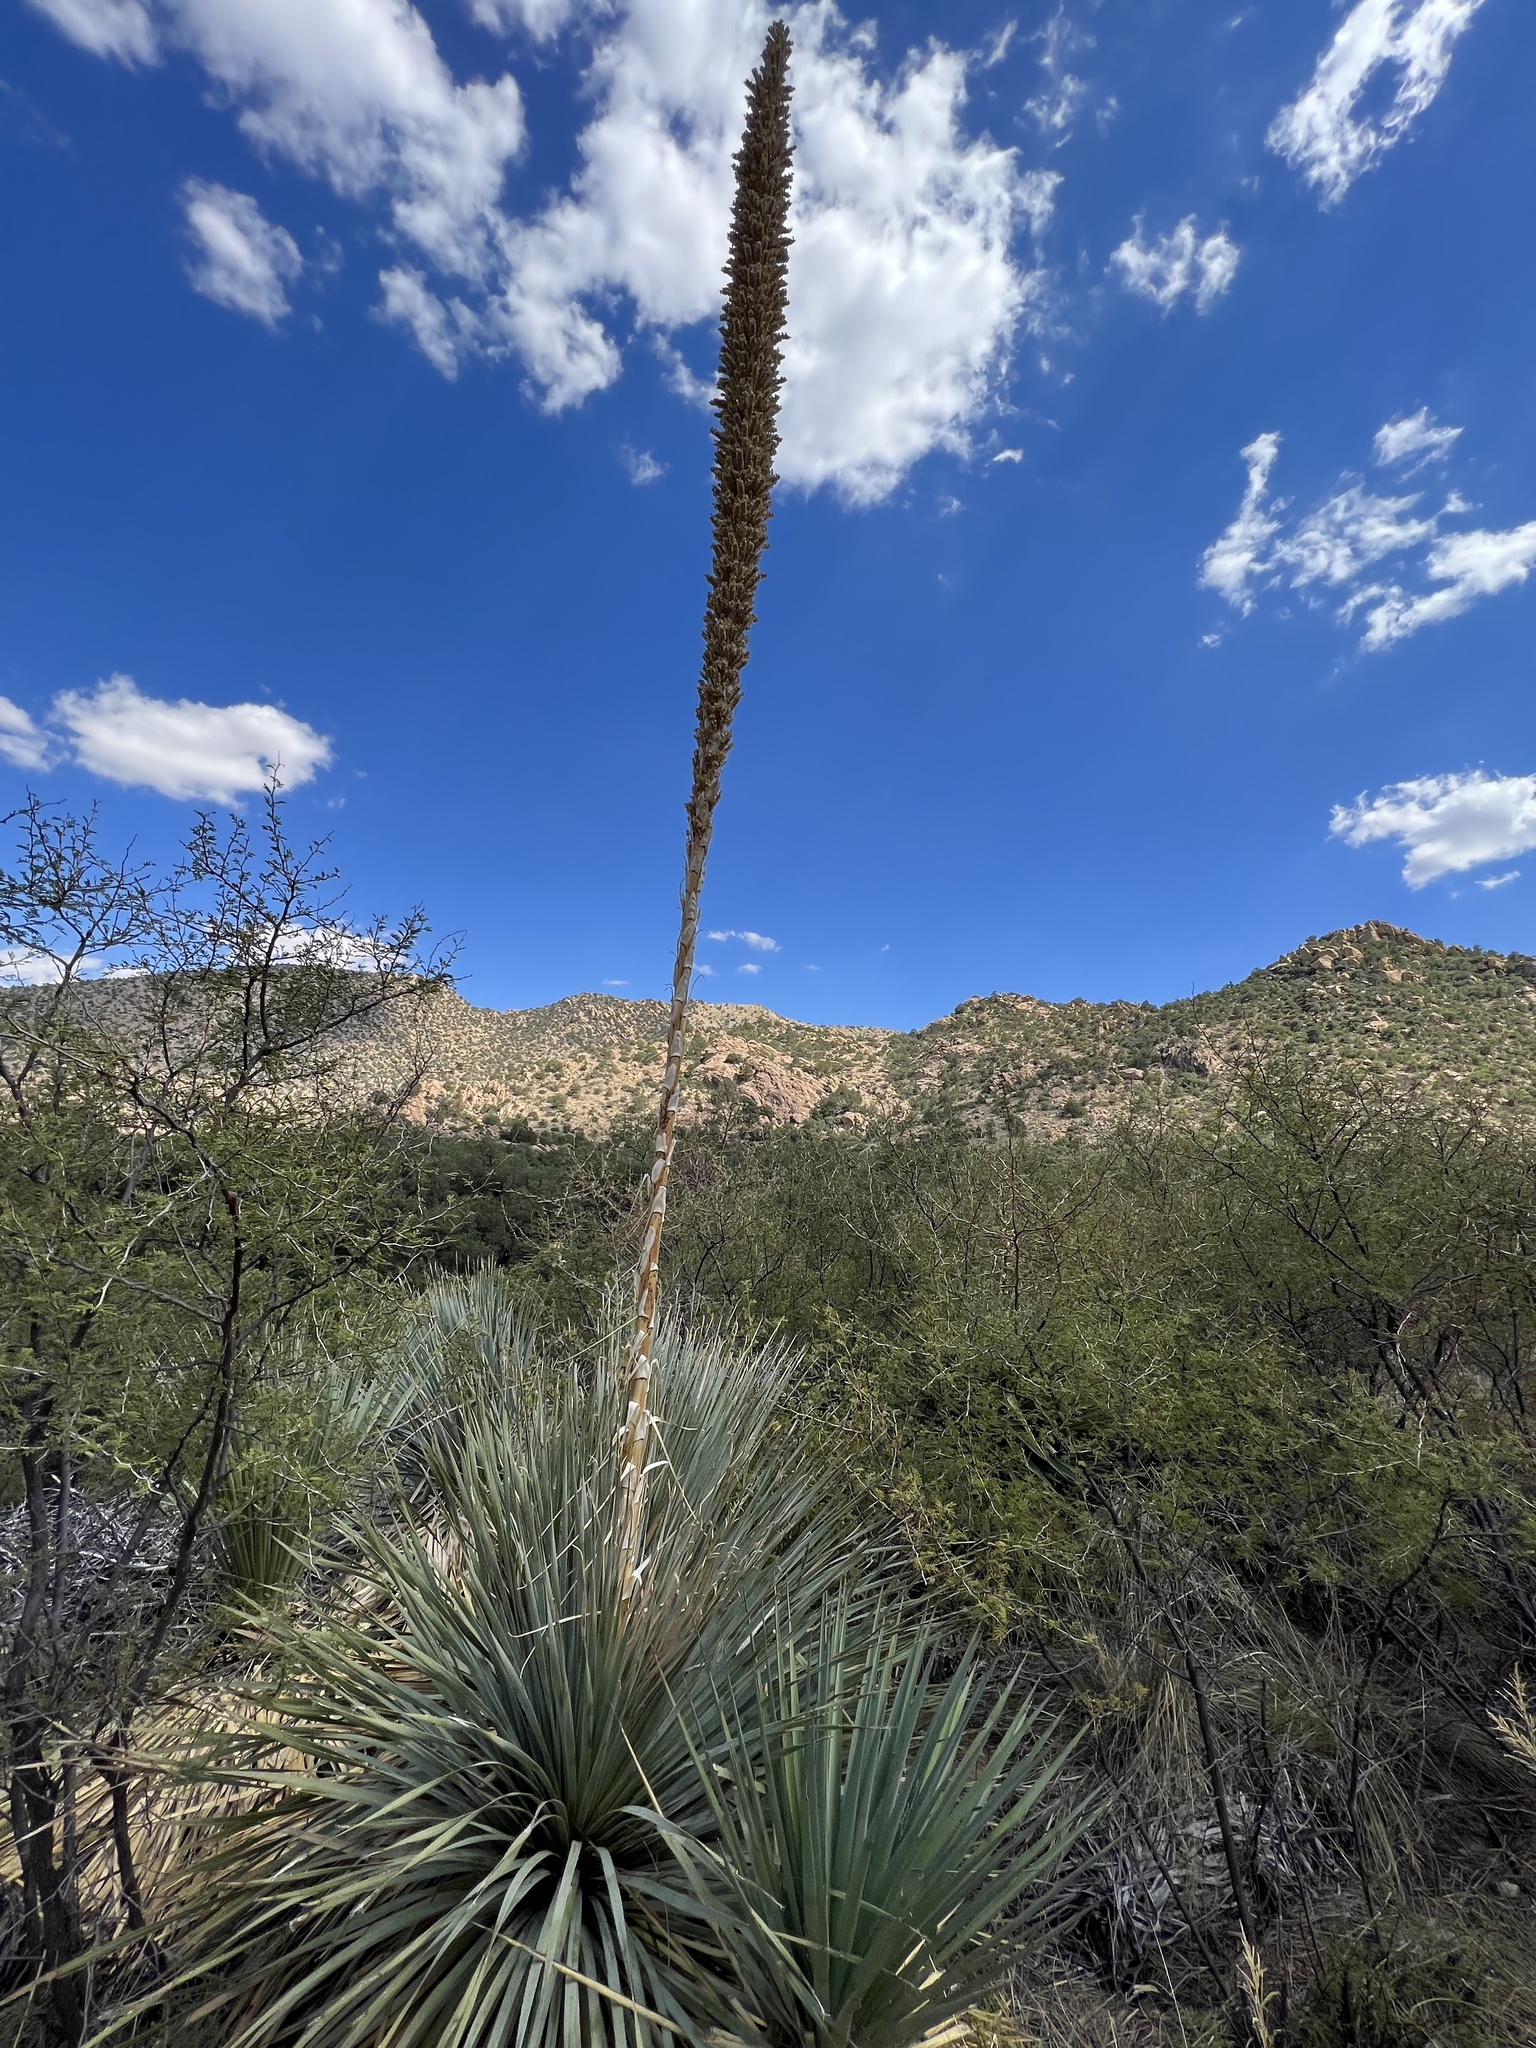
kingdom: Plantae
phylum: Tracheophyta
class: Liliopsida
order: Asparagales
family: Asparagaceae
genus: Dasylirion
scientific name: Dasylirion wheeleri
